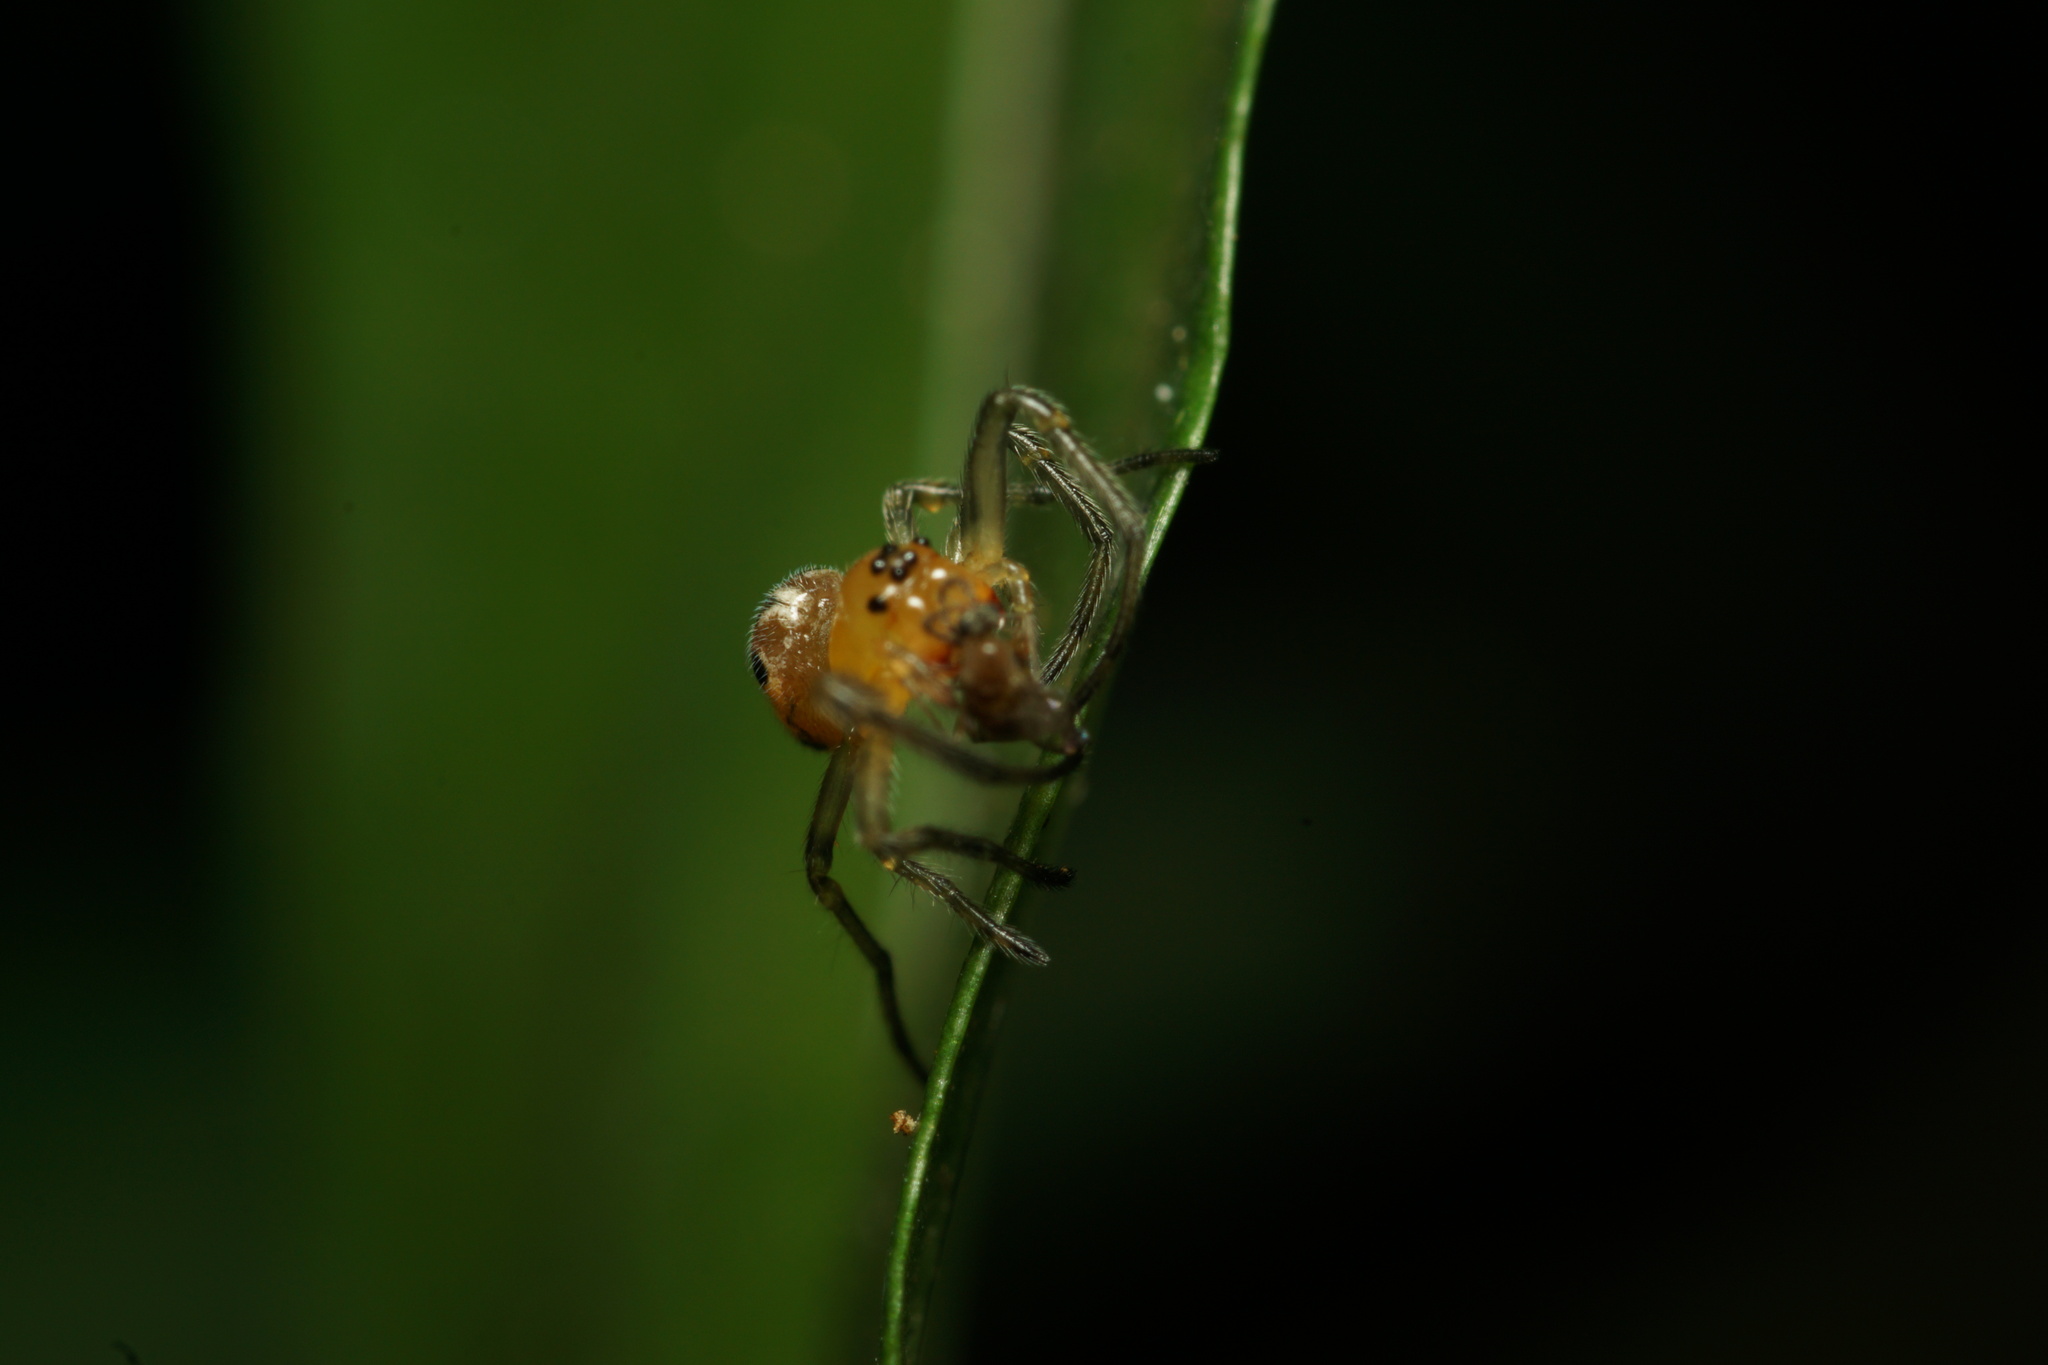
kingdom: Animalia
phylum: Arthropoda
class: Arachnida
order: Araneae
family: Araneidae
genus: Alpaida
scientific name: Alpaida scriba
